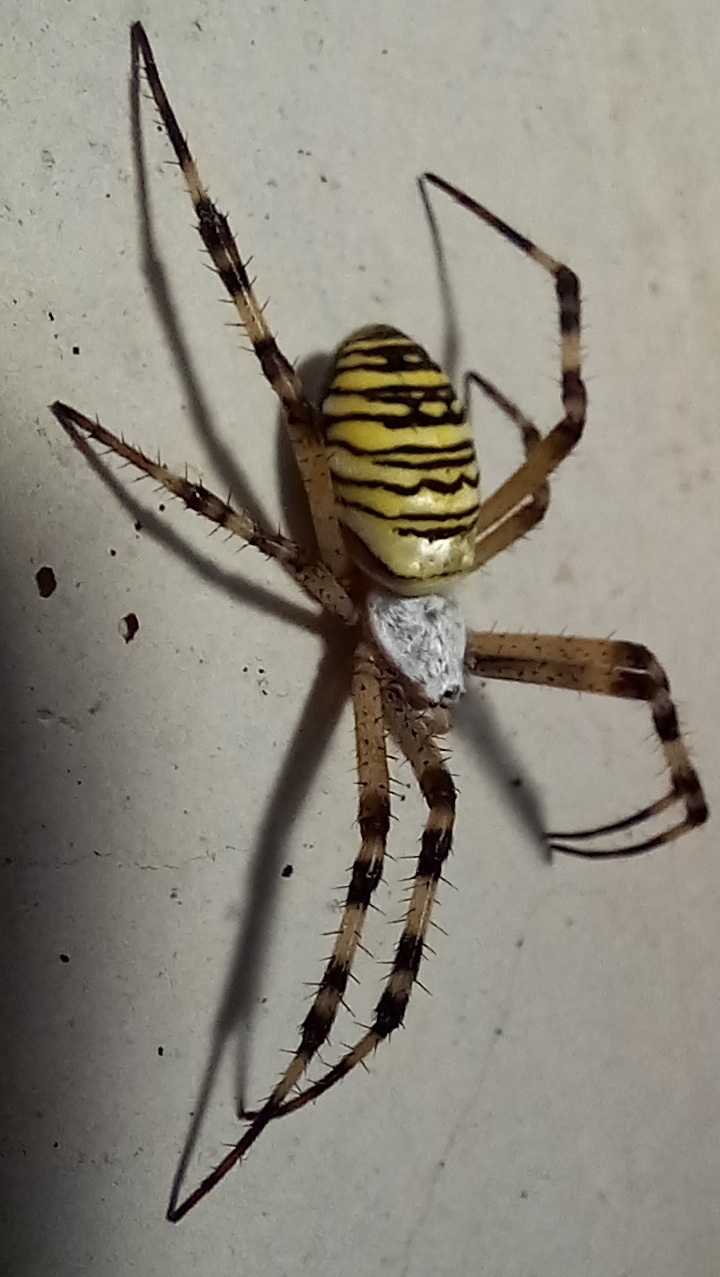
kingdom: Animalia
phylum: Arthropoda
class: Arachnida
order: Araneae
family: Araneidae
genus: Argiope
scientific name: Argiope bruennichi
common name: Wasp spider
